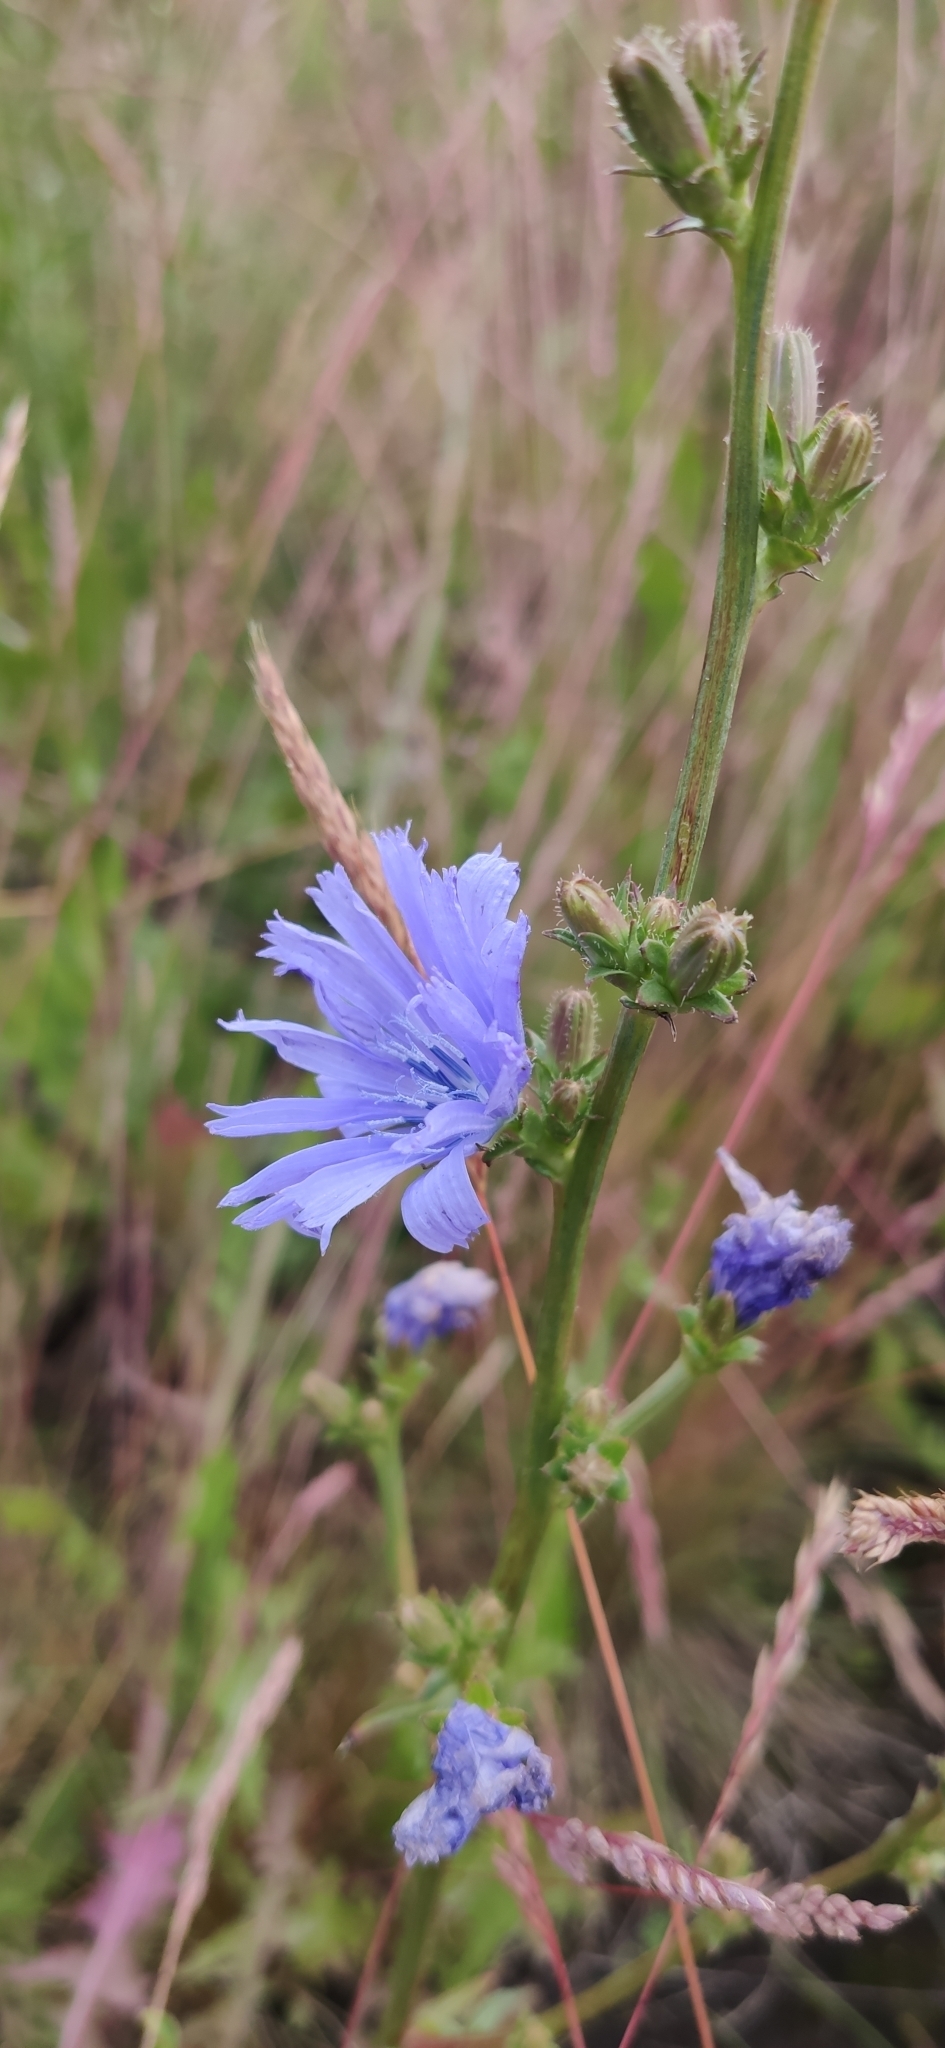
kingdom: Plantae
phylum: Tracheophyta
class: Magnoliopsida
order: Asterales
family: Asteraceae
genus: Cichorium
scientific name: Cichorium intybus
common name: Chicory
